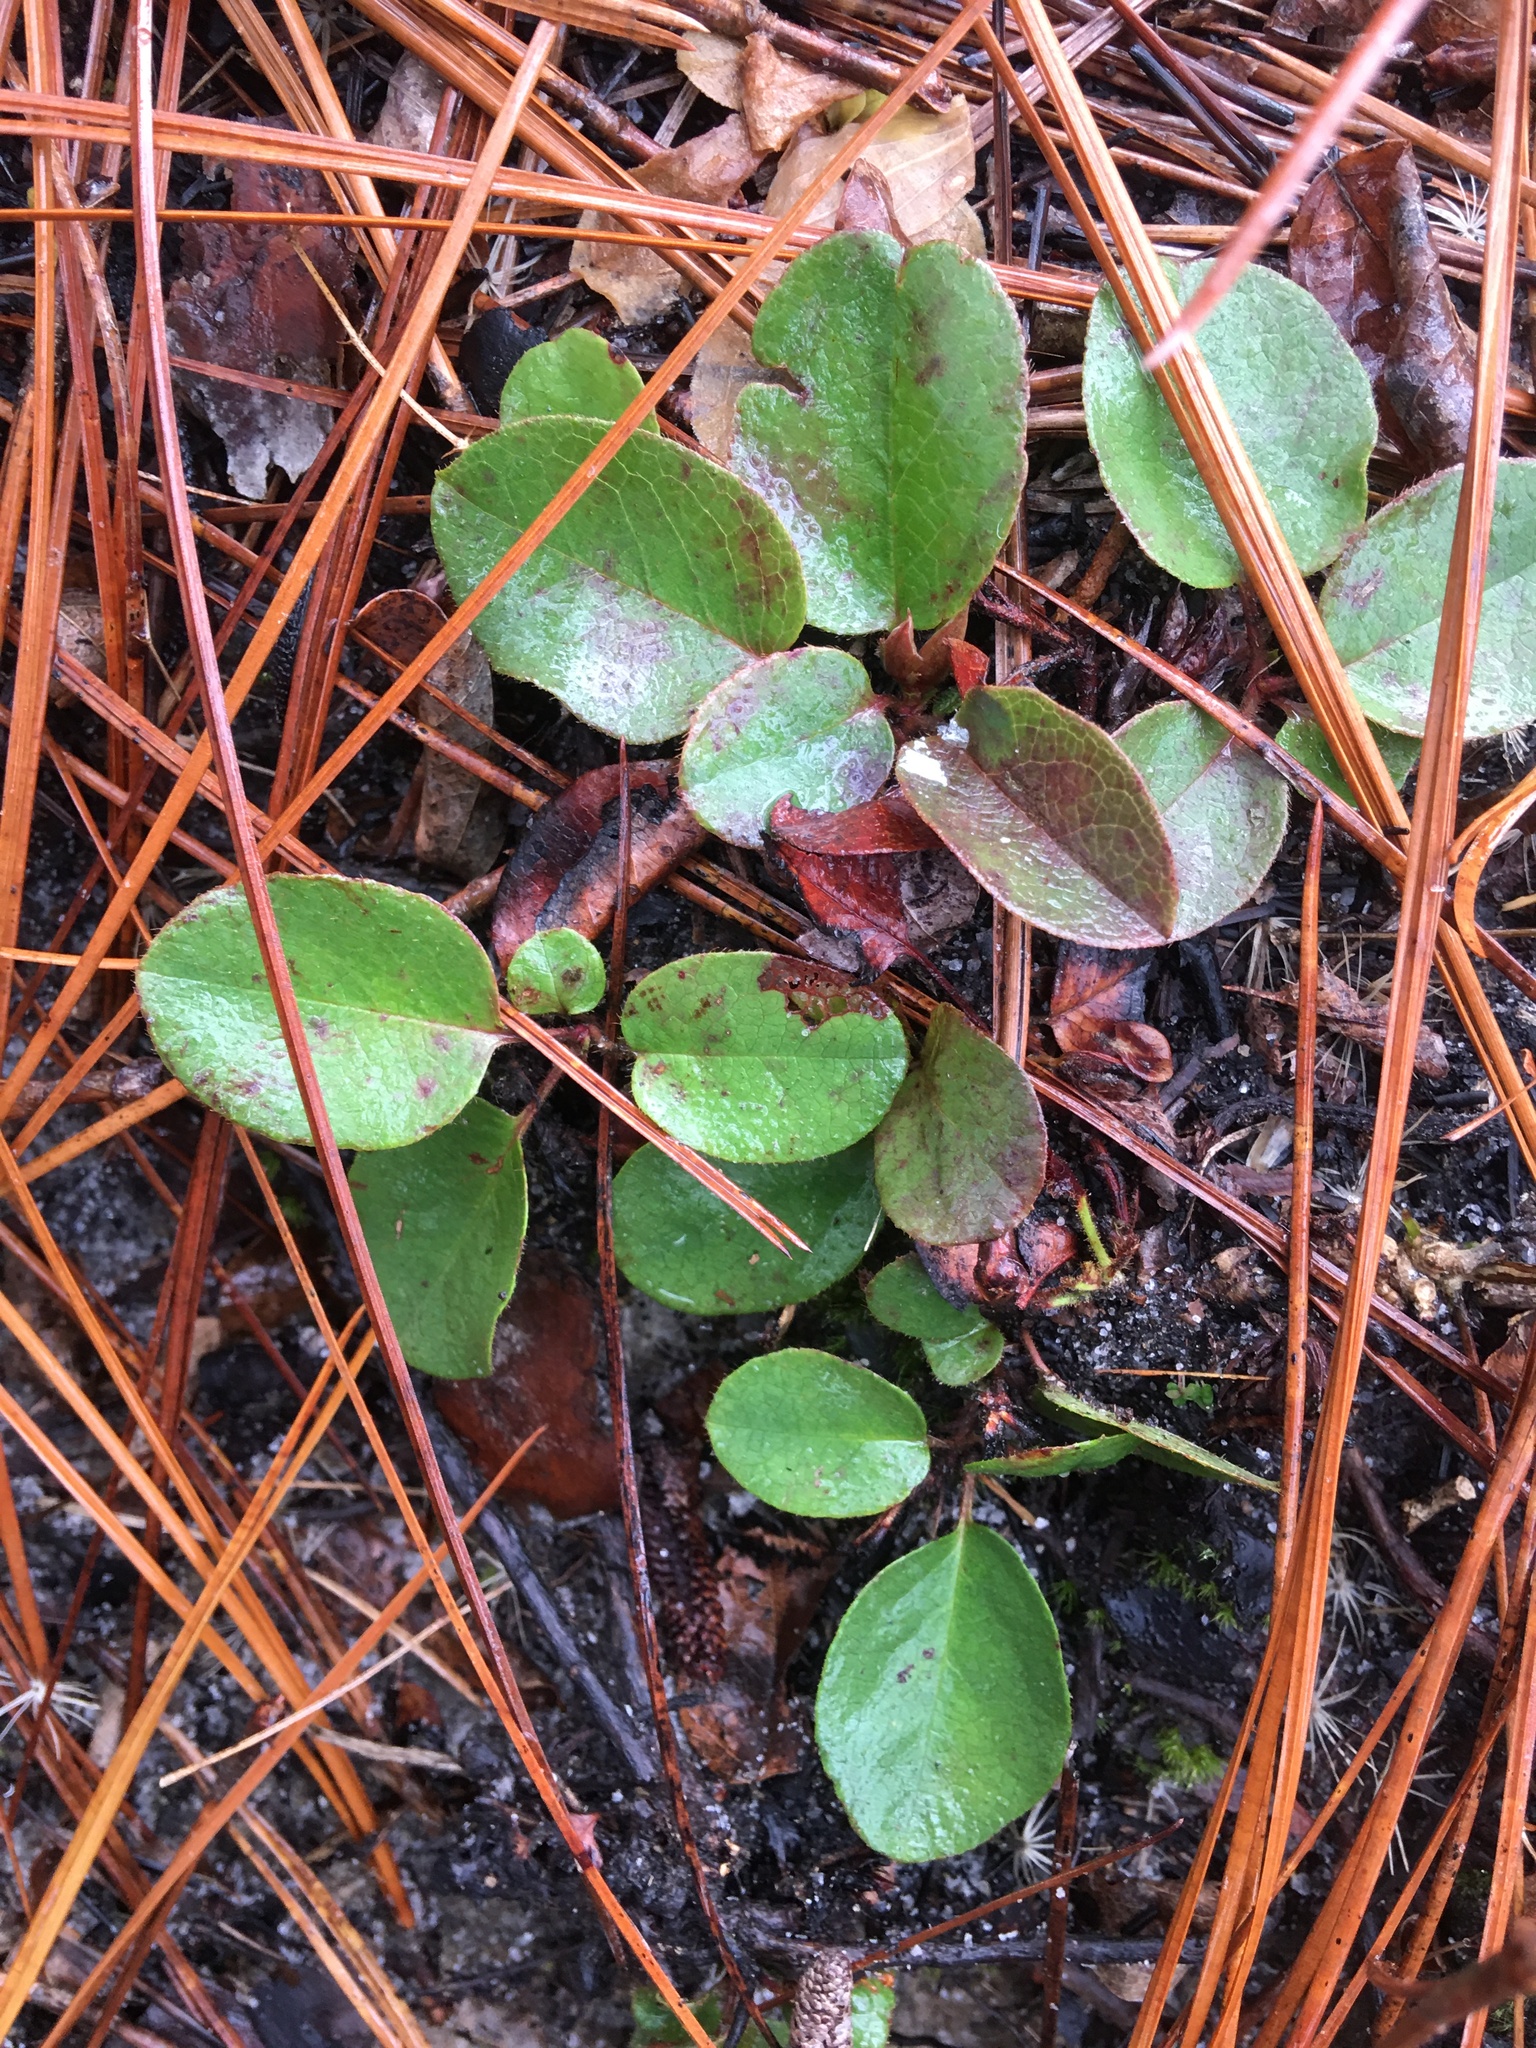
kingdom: Plantae
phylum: Tracheophyta
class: Magnoliopsida
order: Ericales
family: Ericaceae
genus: Epigaea
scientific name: Epigaea repens
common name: Gravelroot
